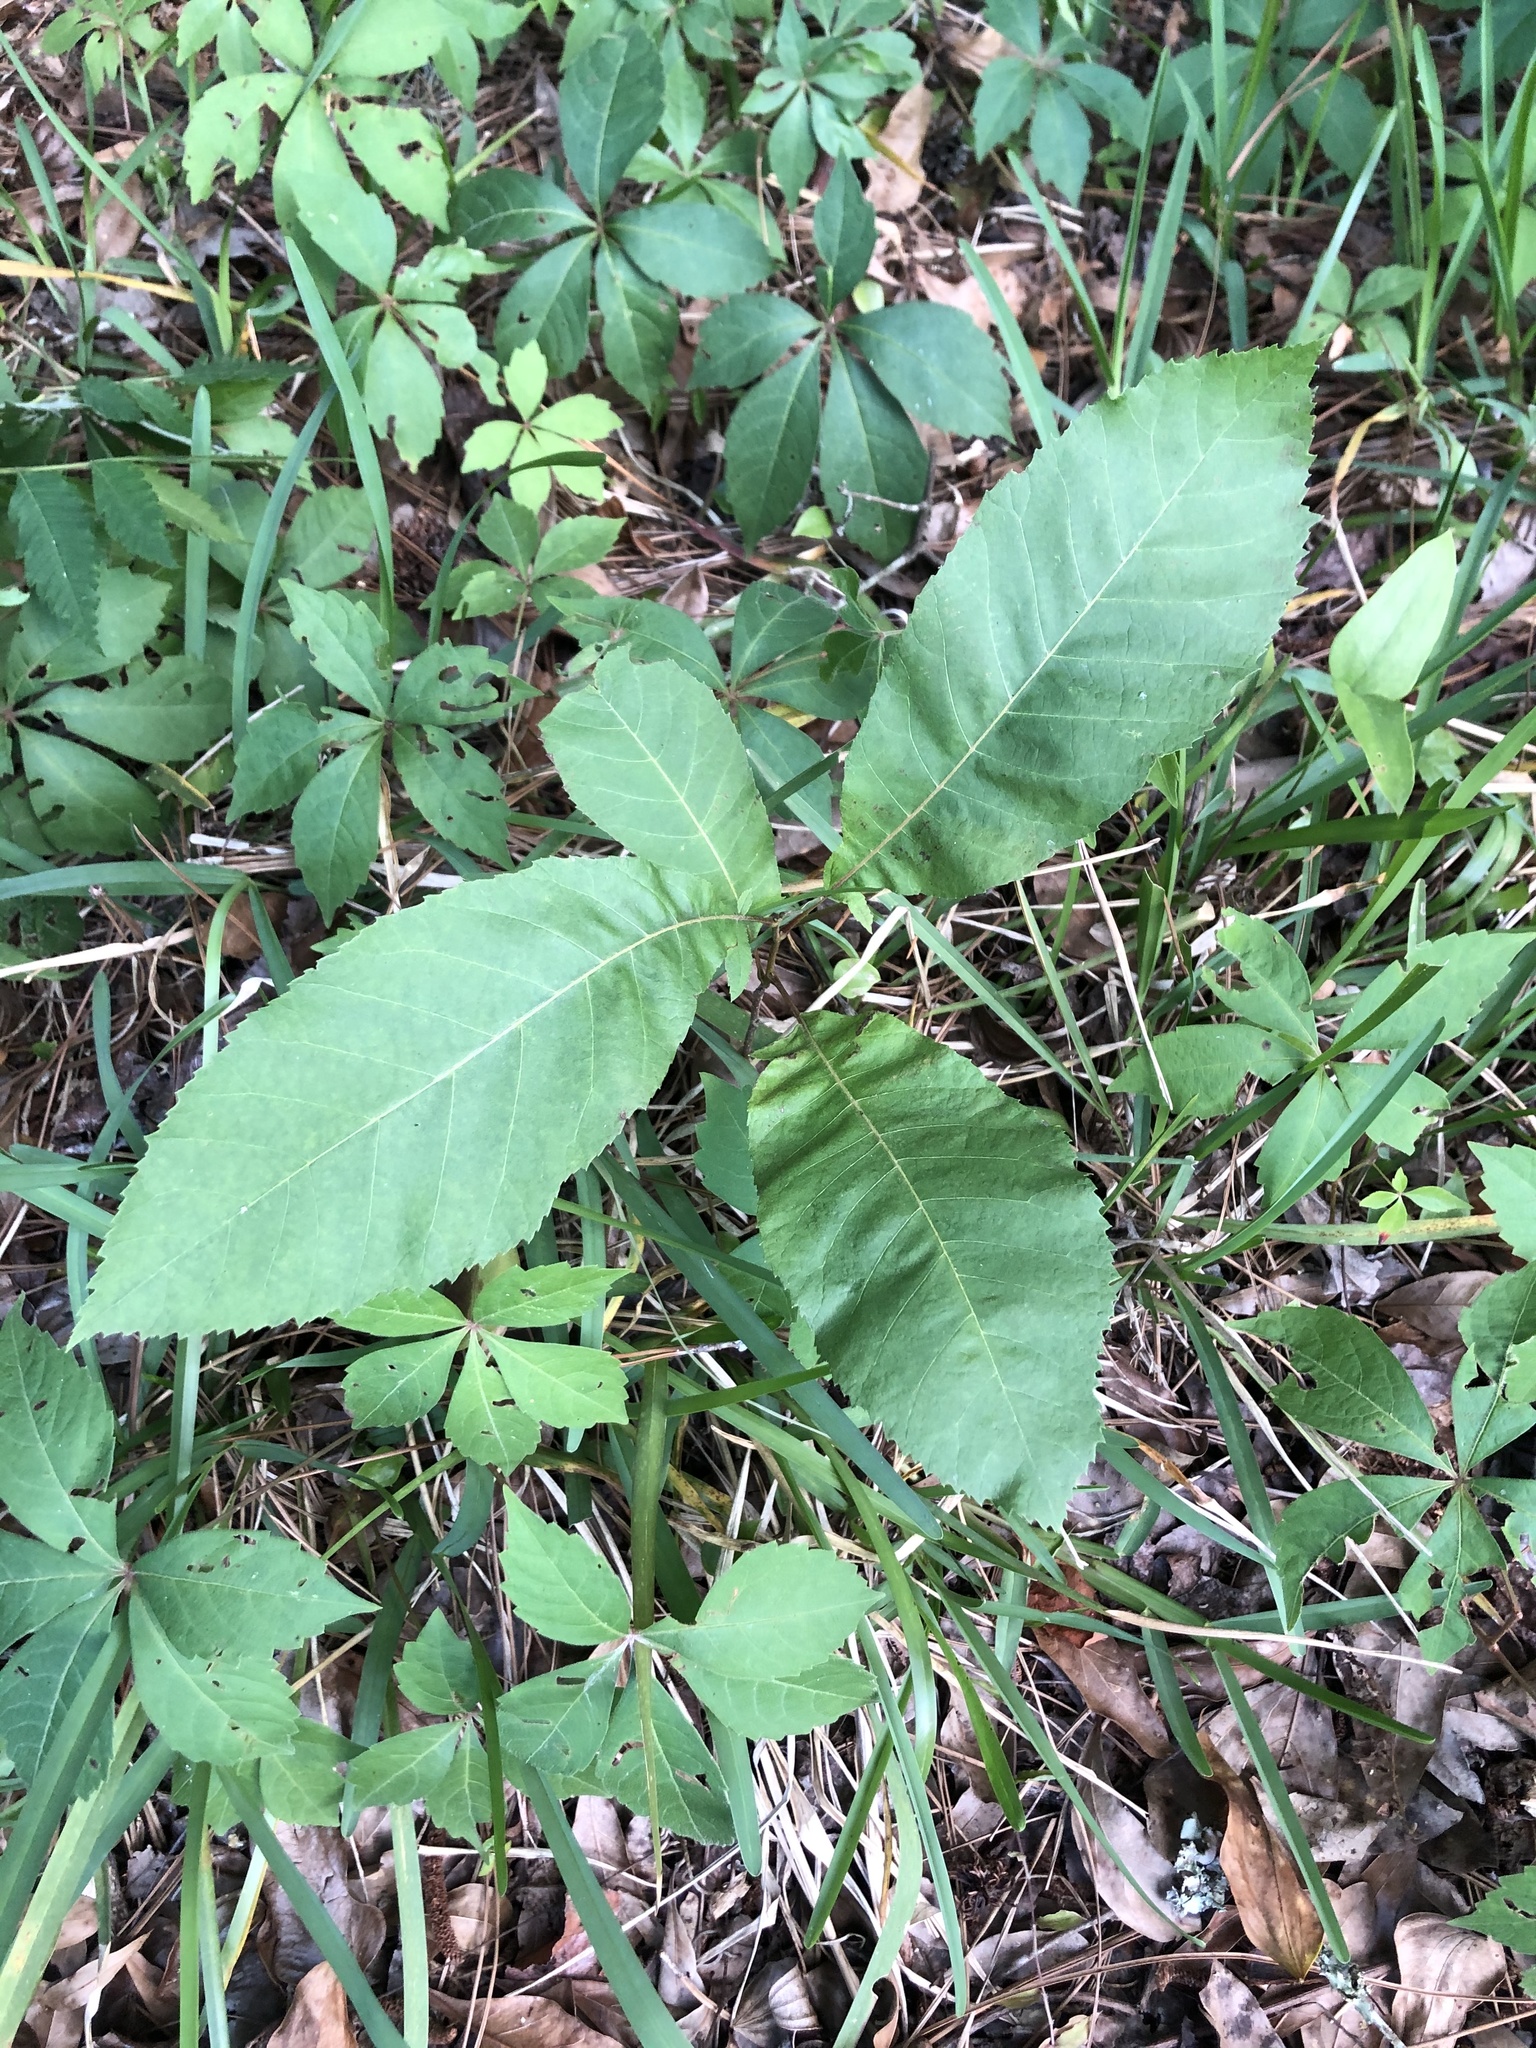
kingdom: Plantae
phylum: Tracheophyta
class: Magnoliopsida
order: Fagales
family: Juglandaceae
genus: Carya
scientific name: Carya glabra
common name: Pignut hickory
